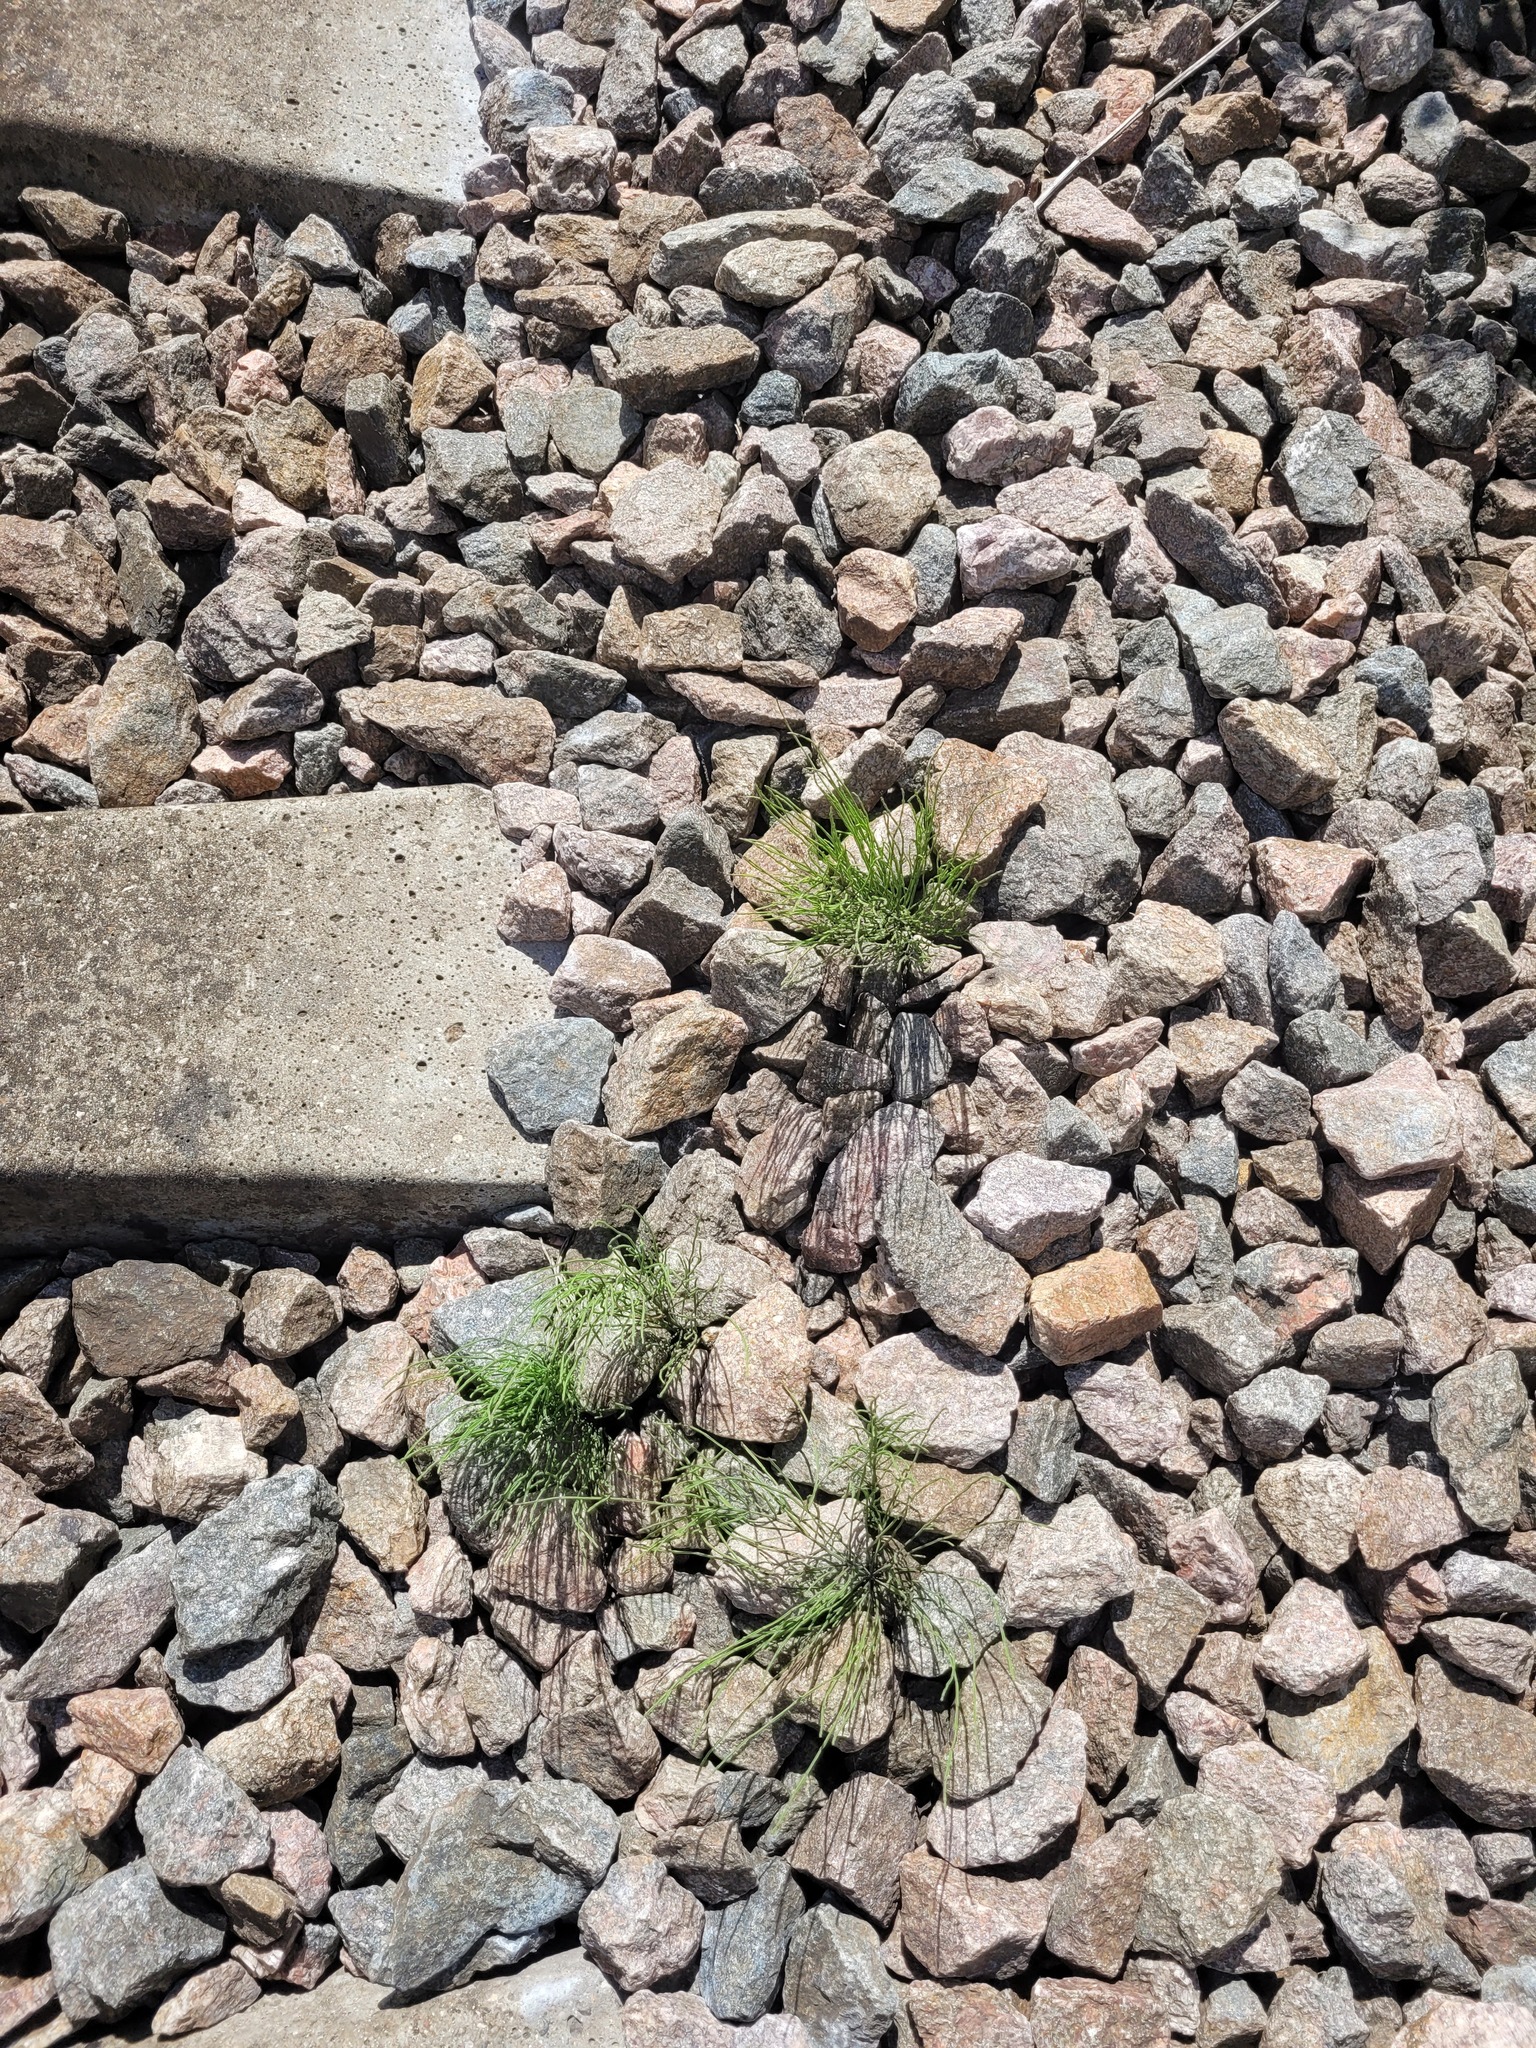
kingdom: Plantae
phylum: Tracheophyta
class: Polypodiopsida
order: Equisetales
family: Equisetaceae
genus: Equisetum
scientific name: Equisetum arvense
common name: Field horsetail
